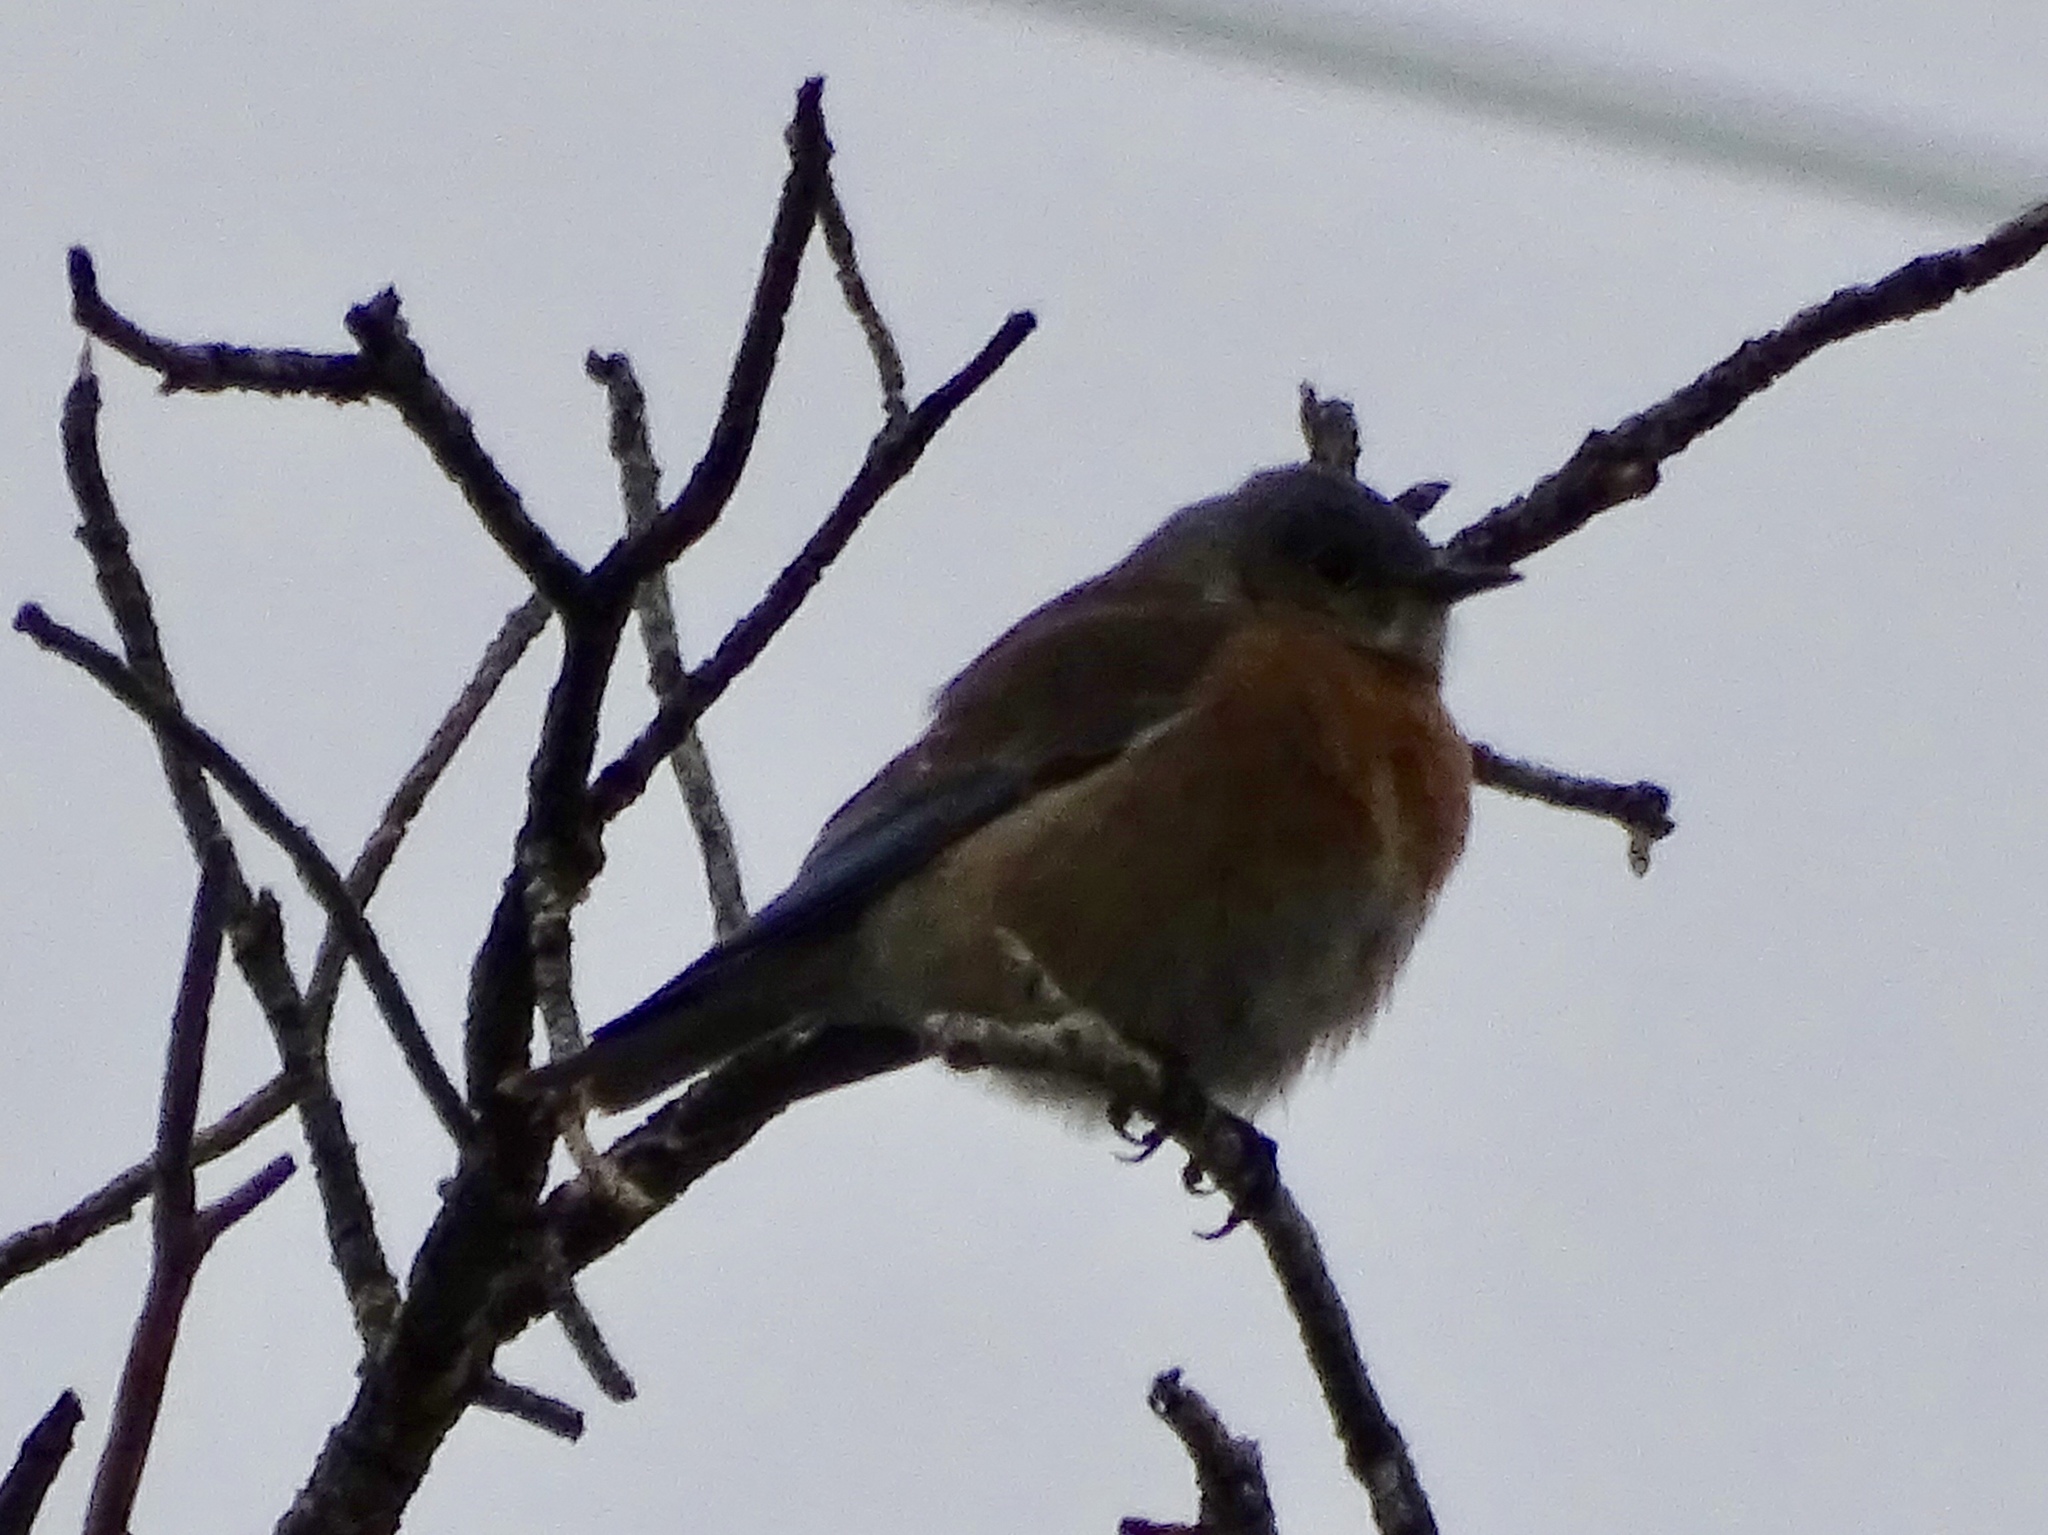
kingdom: Animalia
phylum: Chordata
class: Aves
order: Passeriformes
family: Turdidae
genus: Sialia
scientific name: Sialia mexicana
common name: Western bluebird
